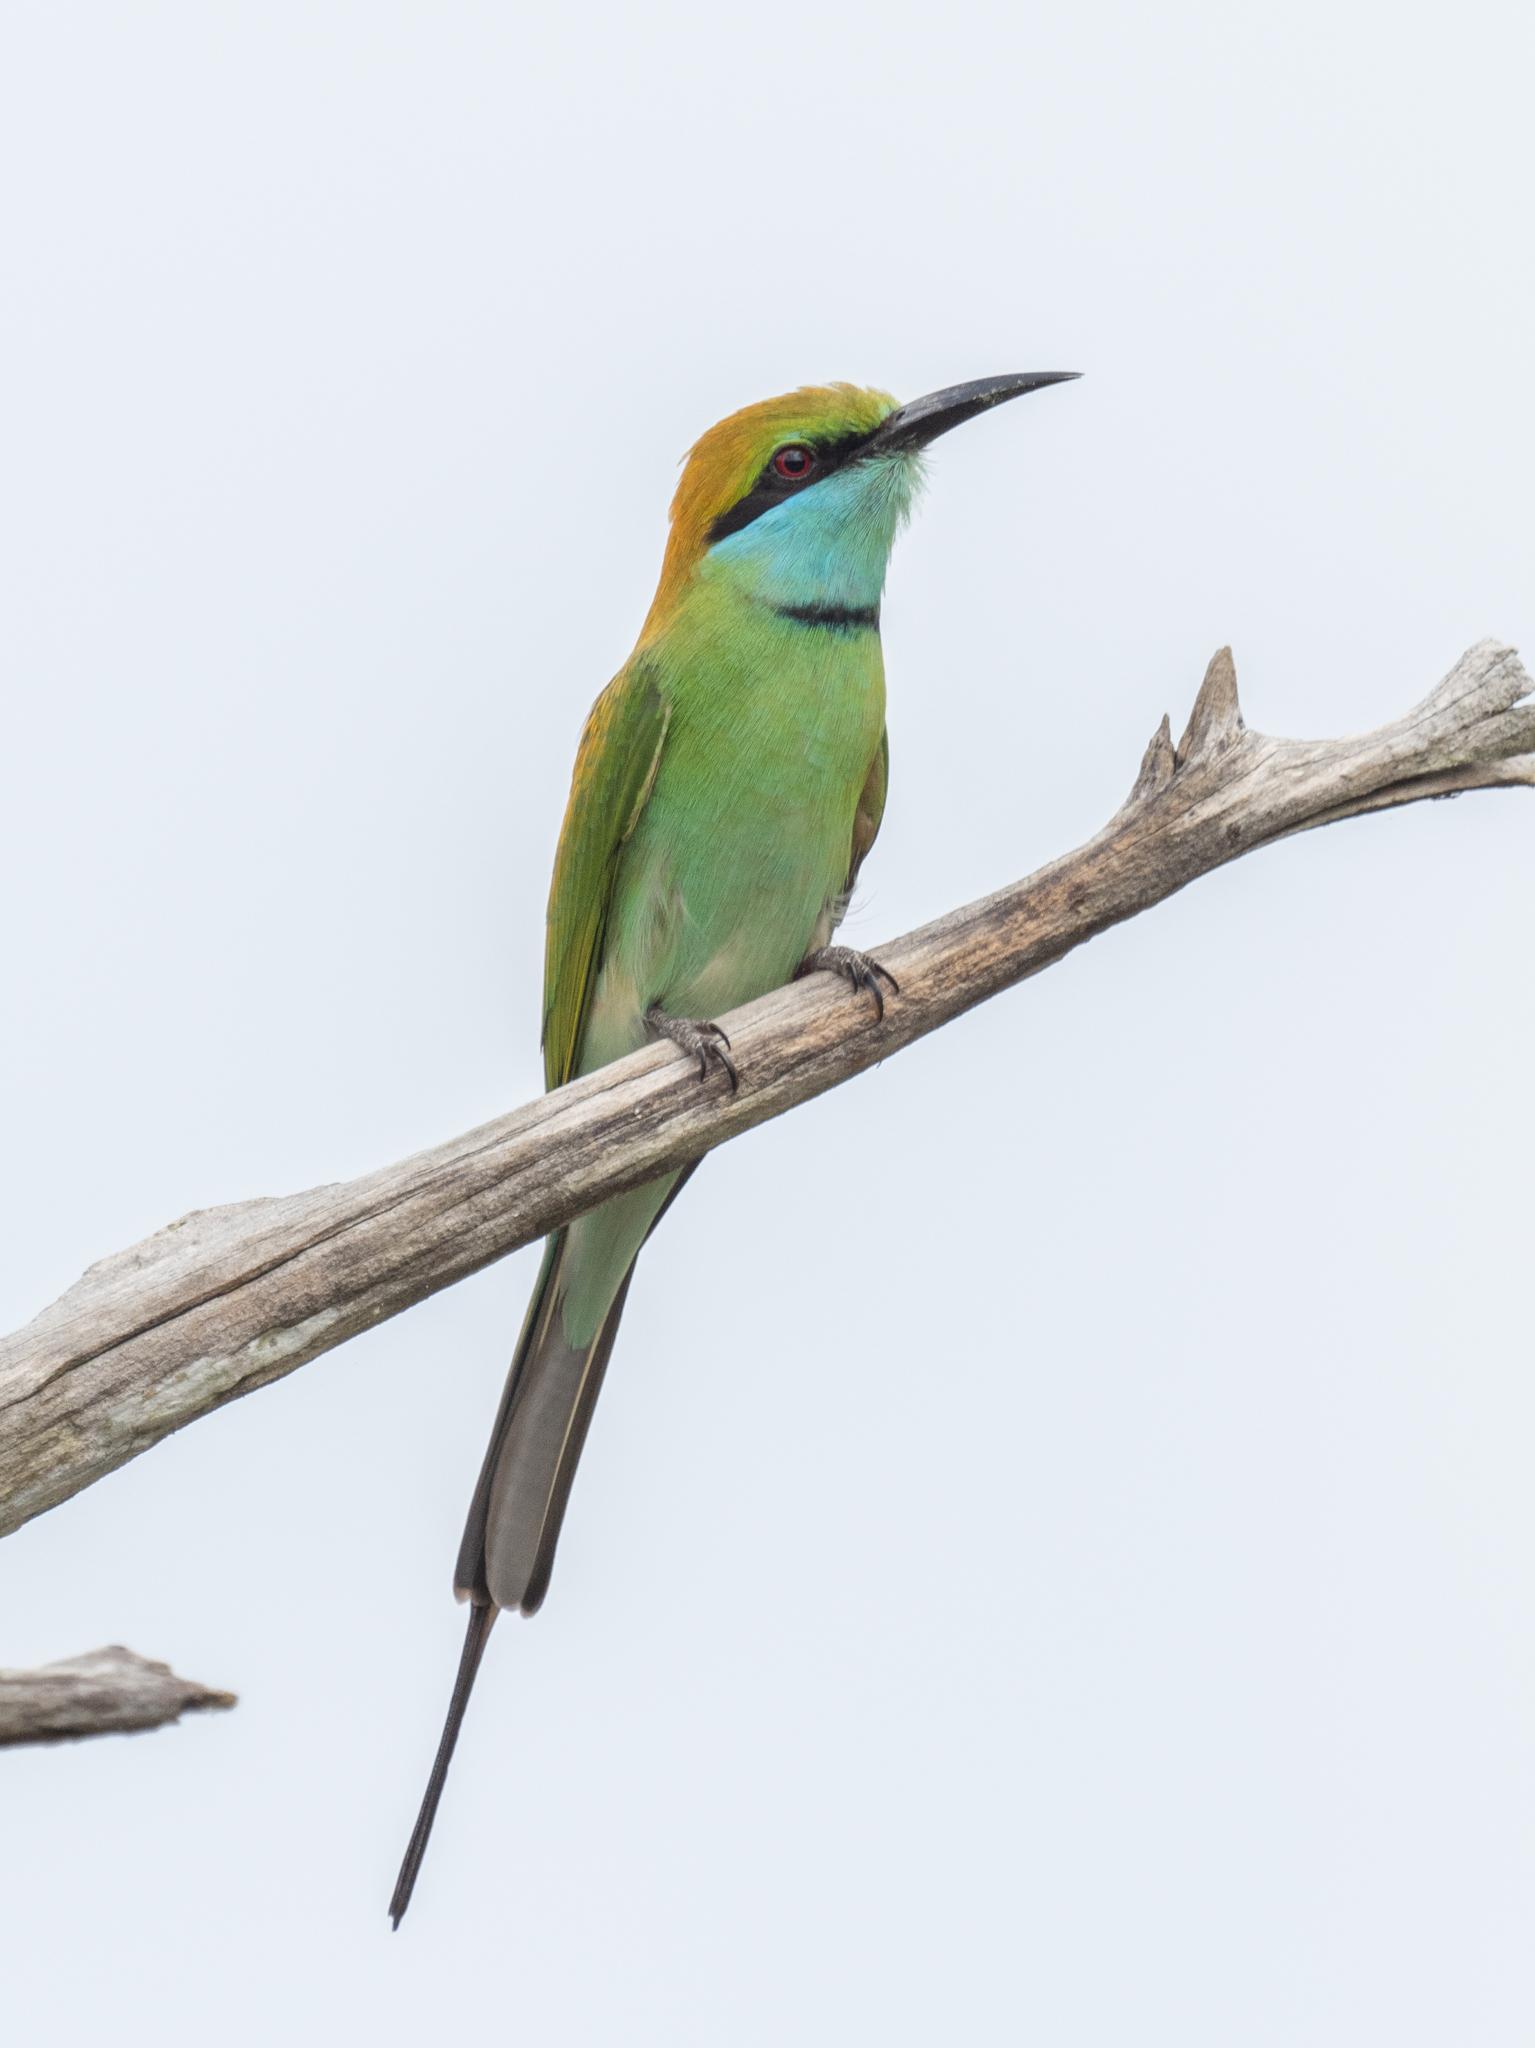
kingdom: Animalia
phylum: Chordata
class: Aves
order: Coraciiformes
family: Meropidae
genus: Merops
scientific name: Merops orientalis
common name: Green bee-eater
